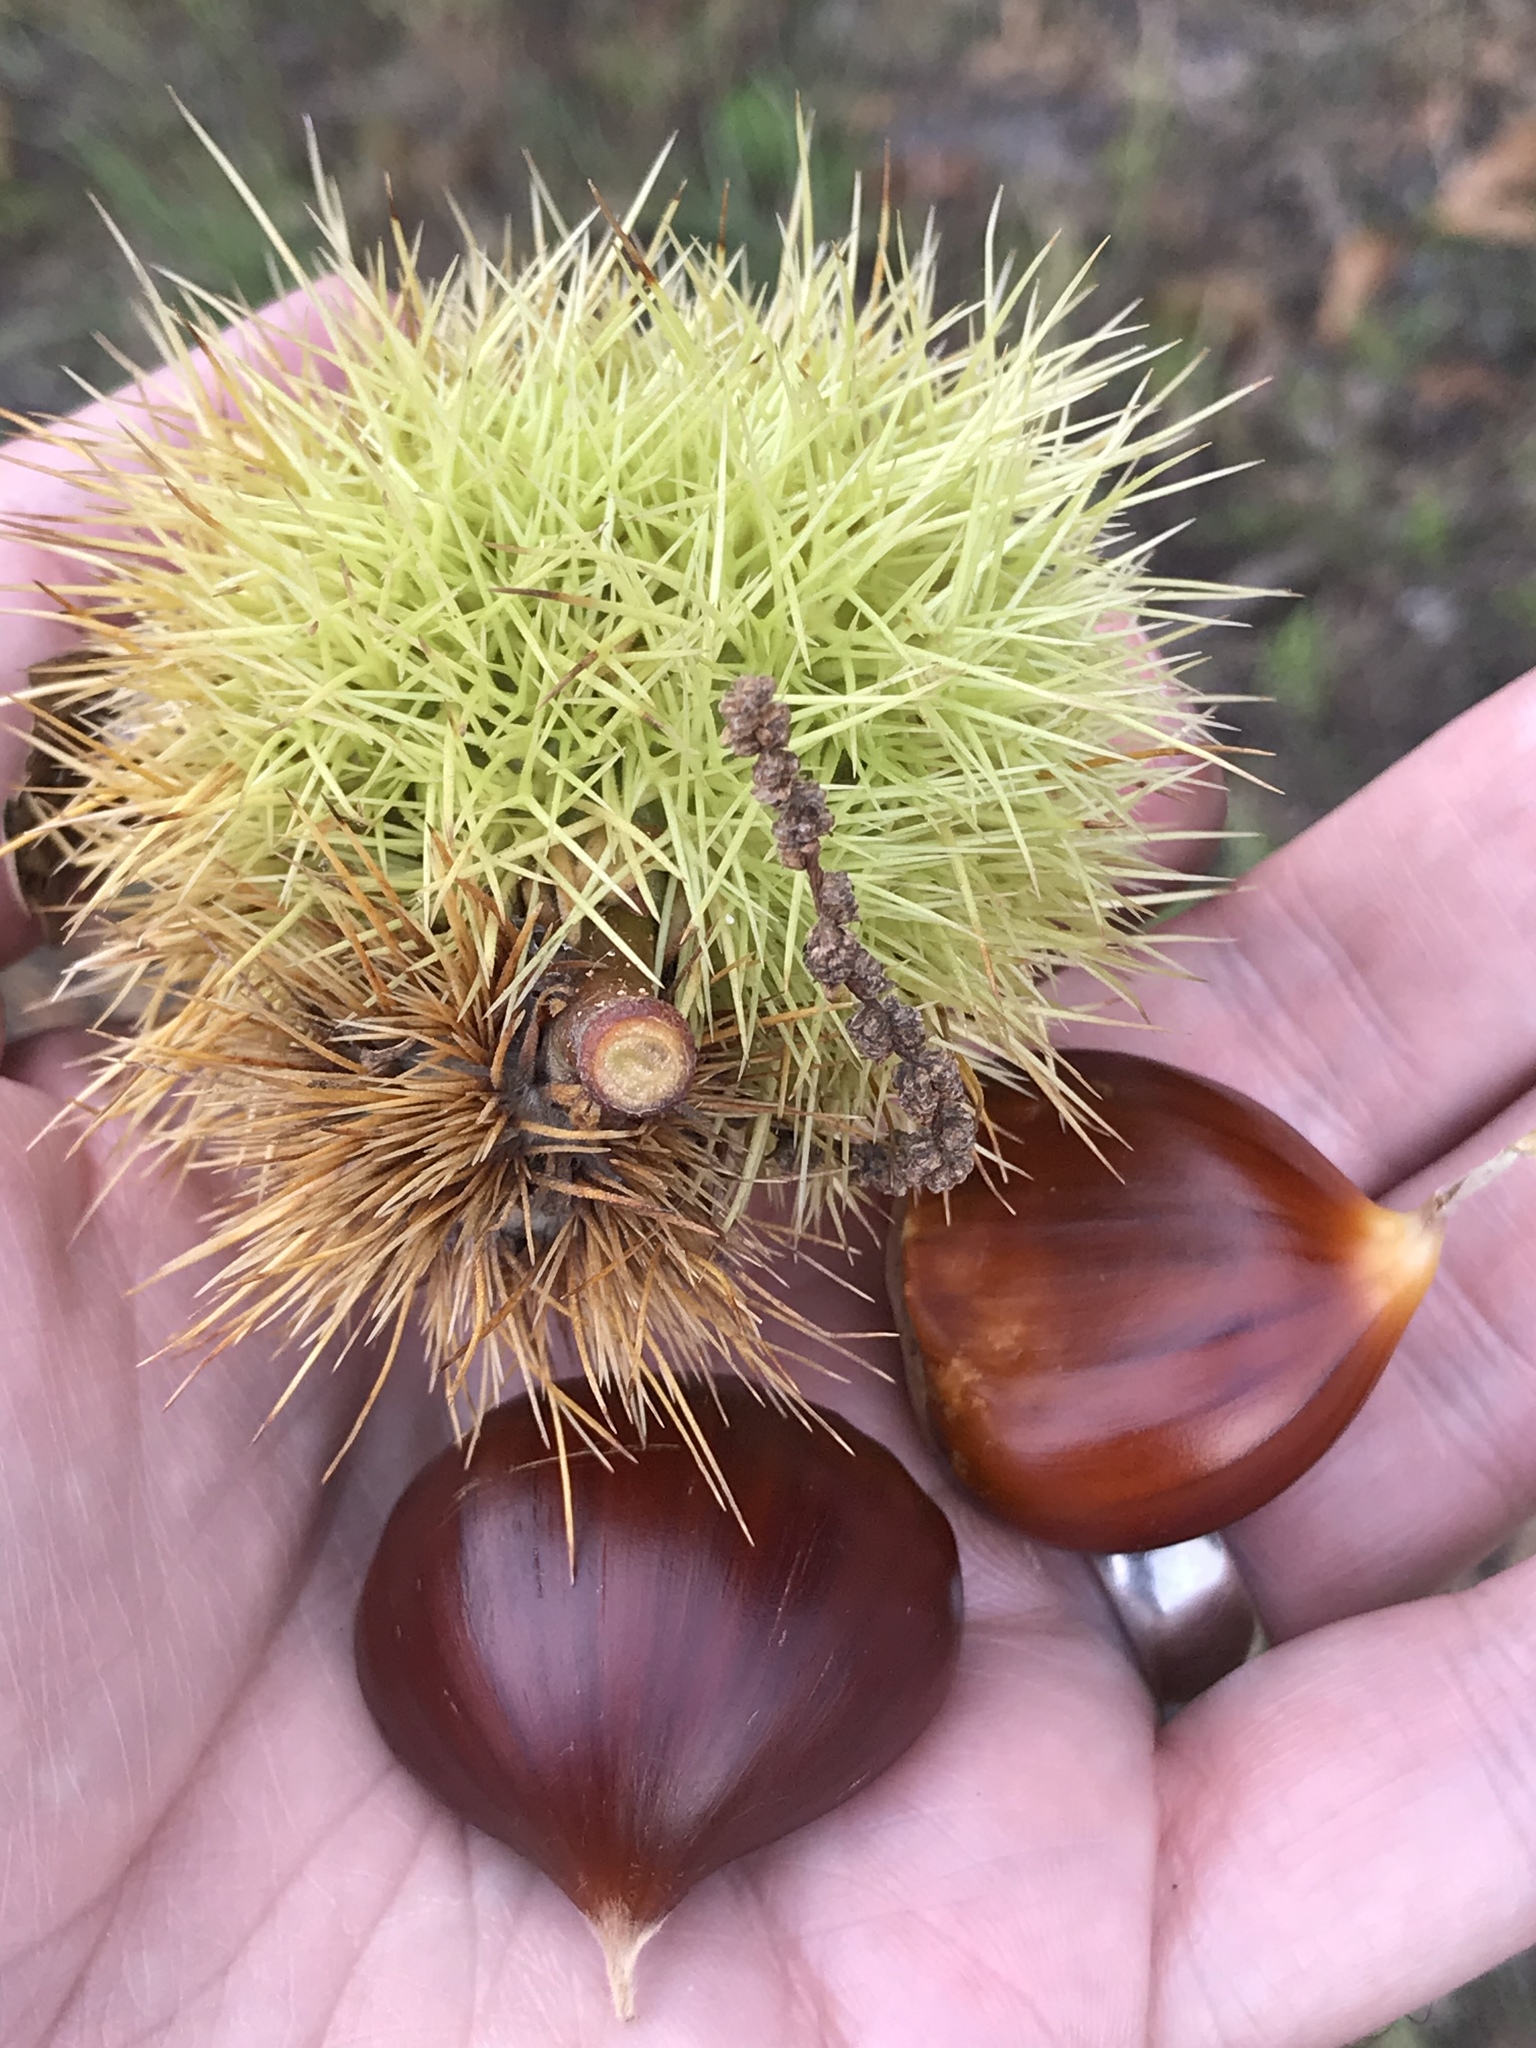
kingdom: Plantae
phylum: Tracheophyta
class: Magnoliopsida
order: Fagales
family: Fagaceae
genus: Castanea
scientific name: Castanea sativa
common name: Sweet chestnut
